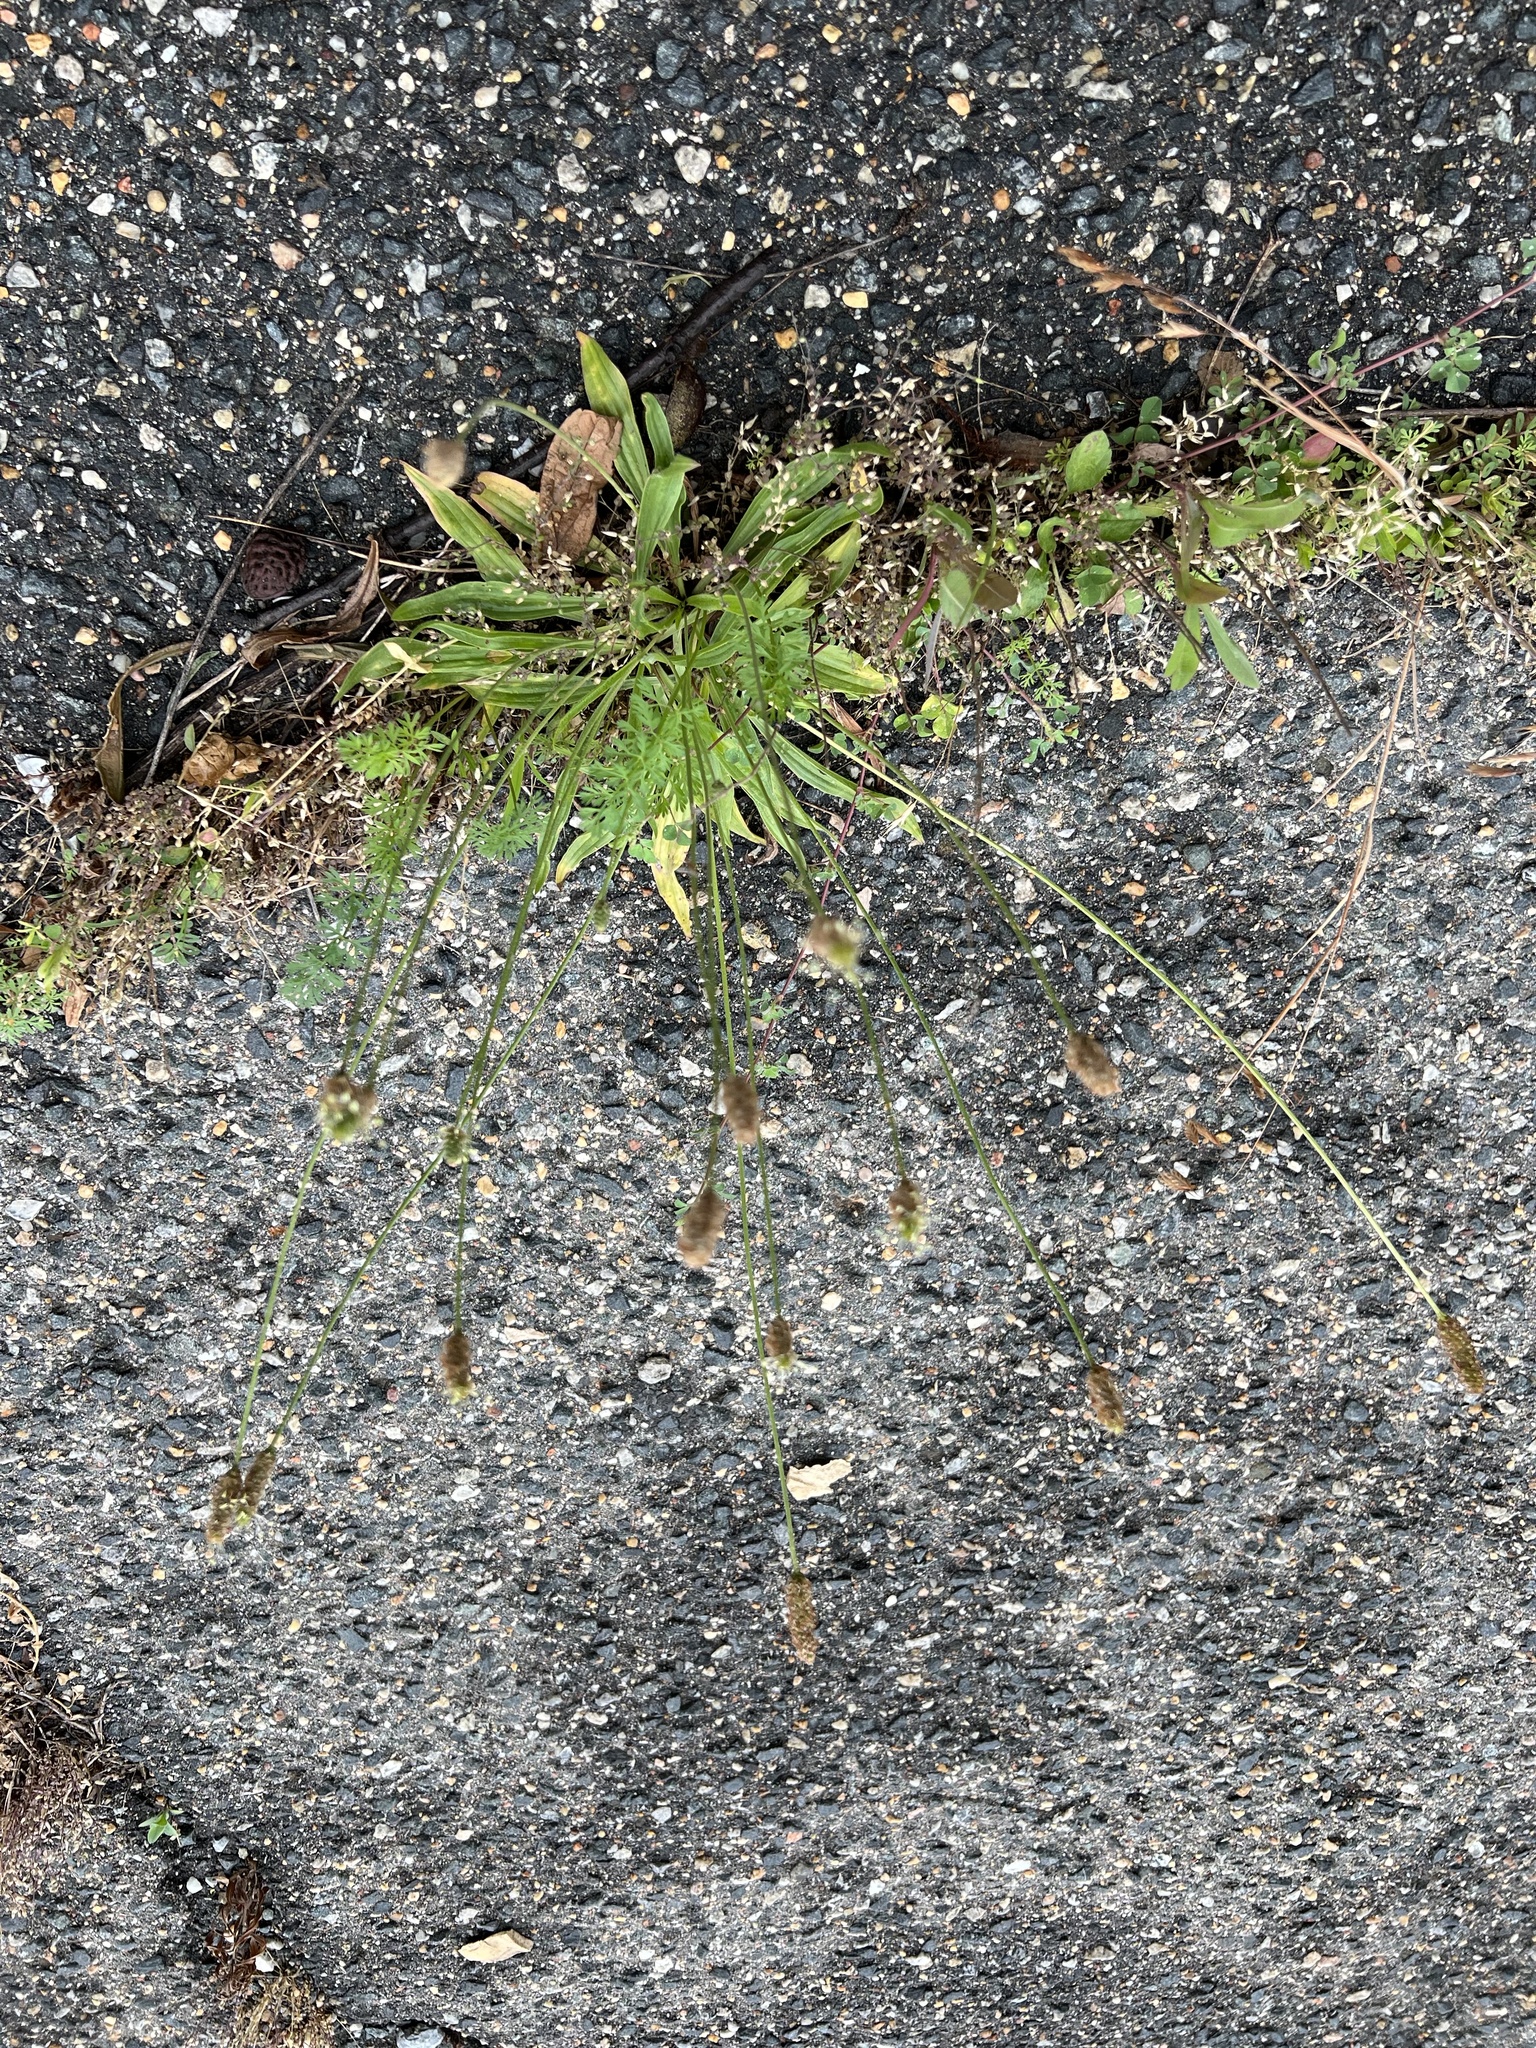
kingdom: Plantae
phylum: Tracheophyta
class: Magnoliopsida
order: Lamiales
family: Plantaginaceae
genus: Plantago
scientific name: Plantago lanceolata
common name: Ribwort plantain
